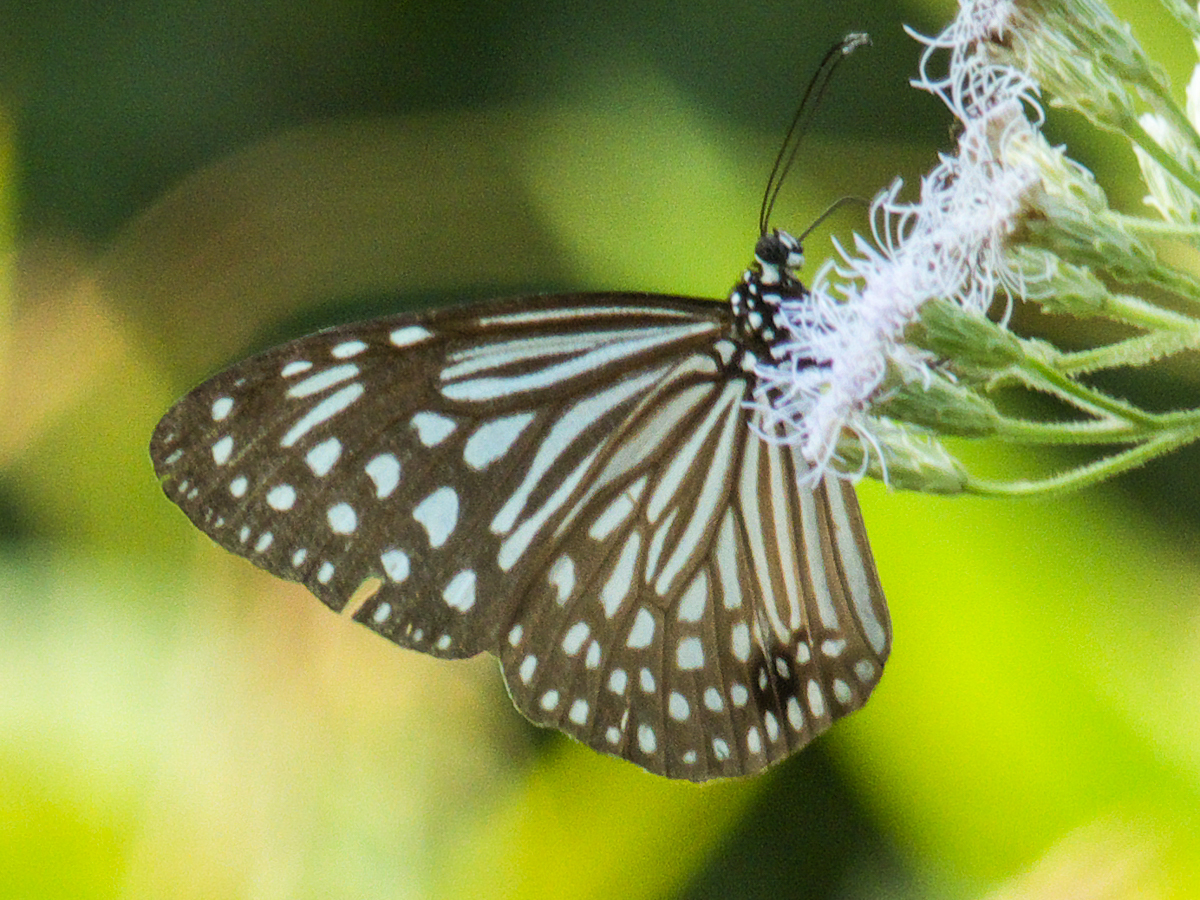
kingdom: Animalia
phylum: Arthropoda
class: Insecta
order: Lepidoptera
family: Nymphalidae
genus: Parantica
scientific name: Parantica agleoides
